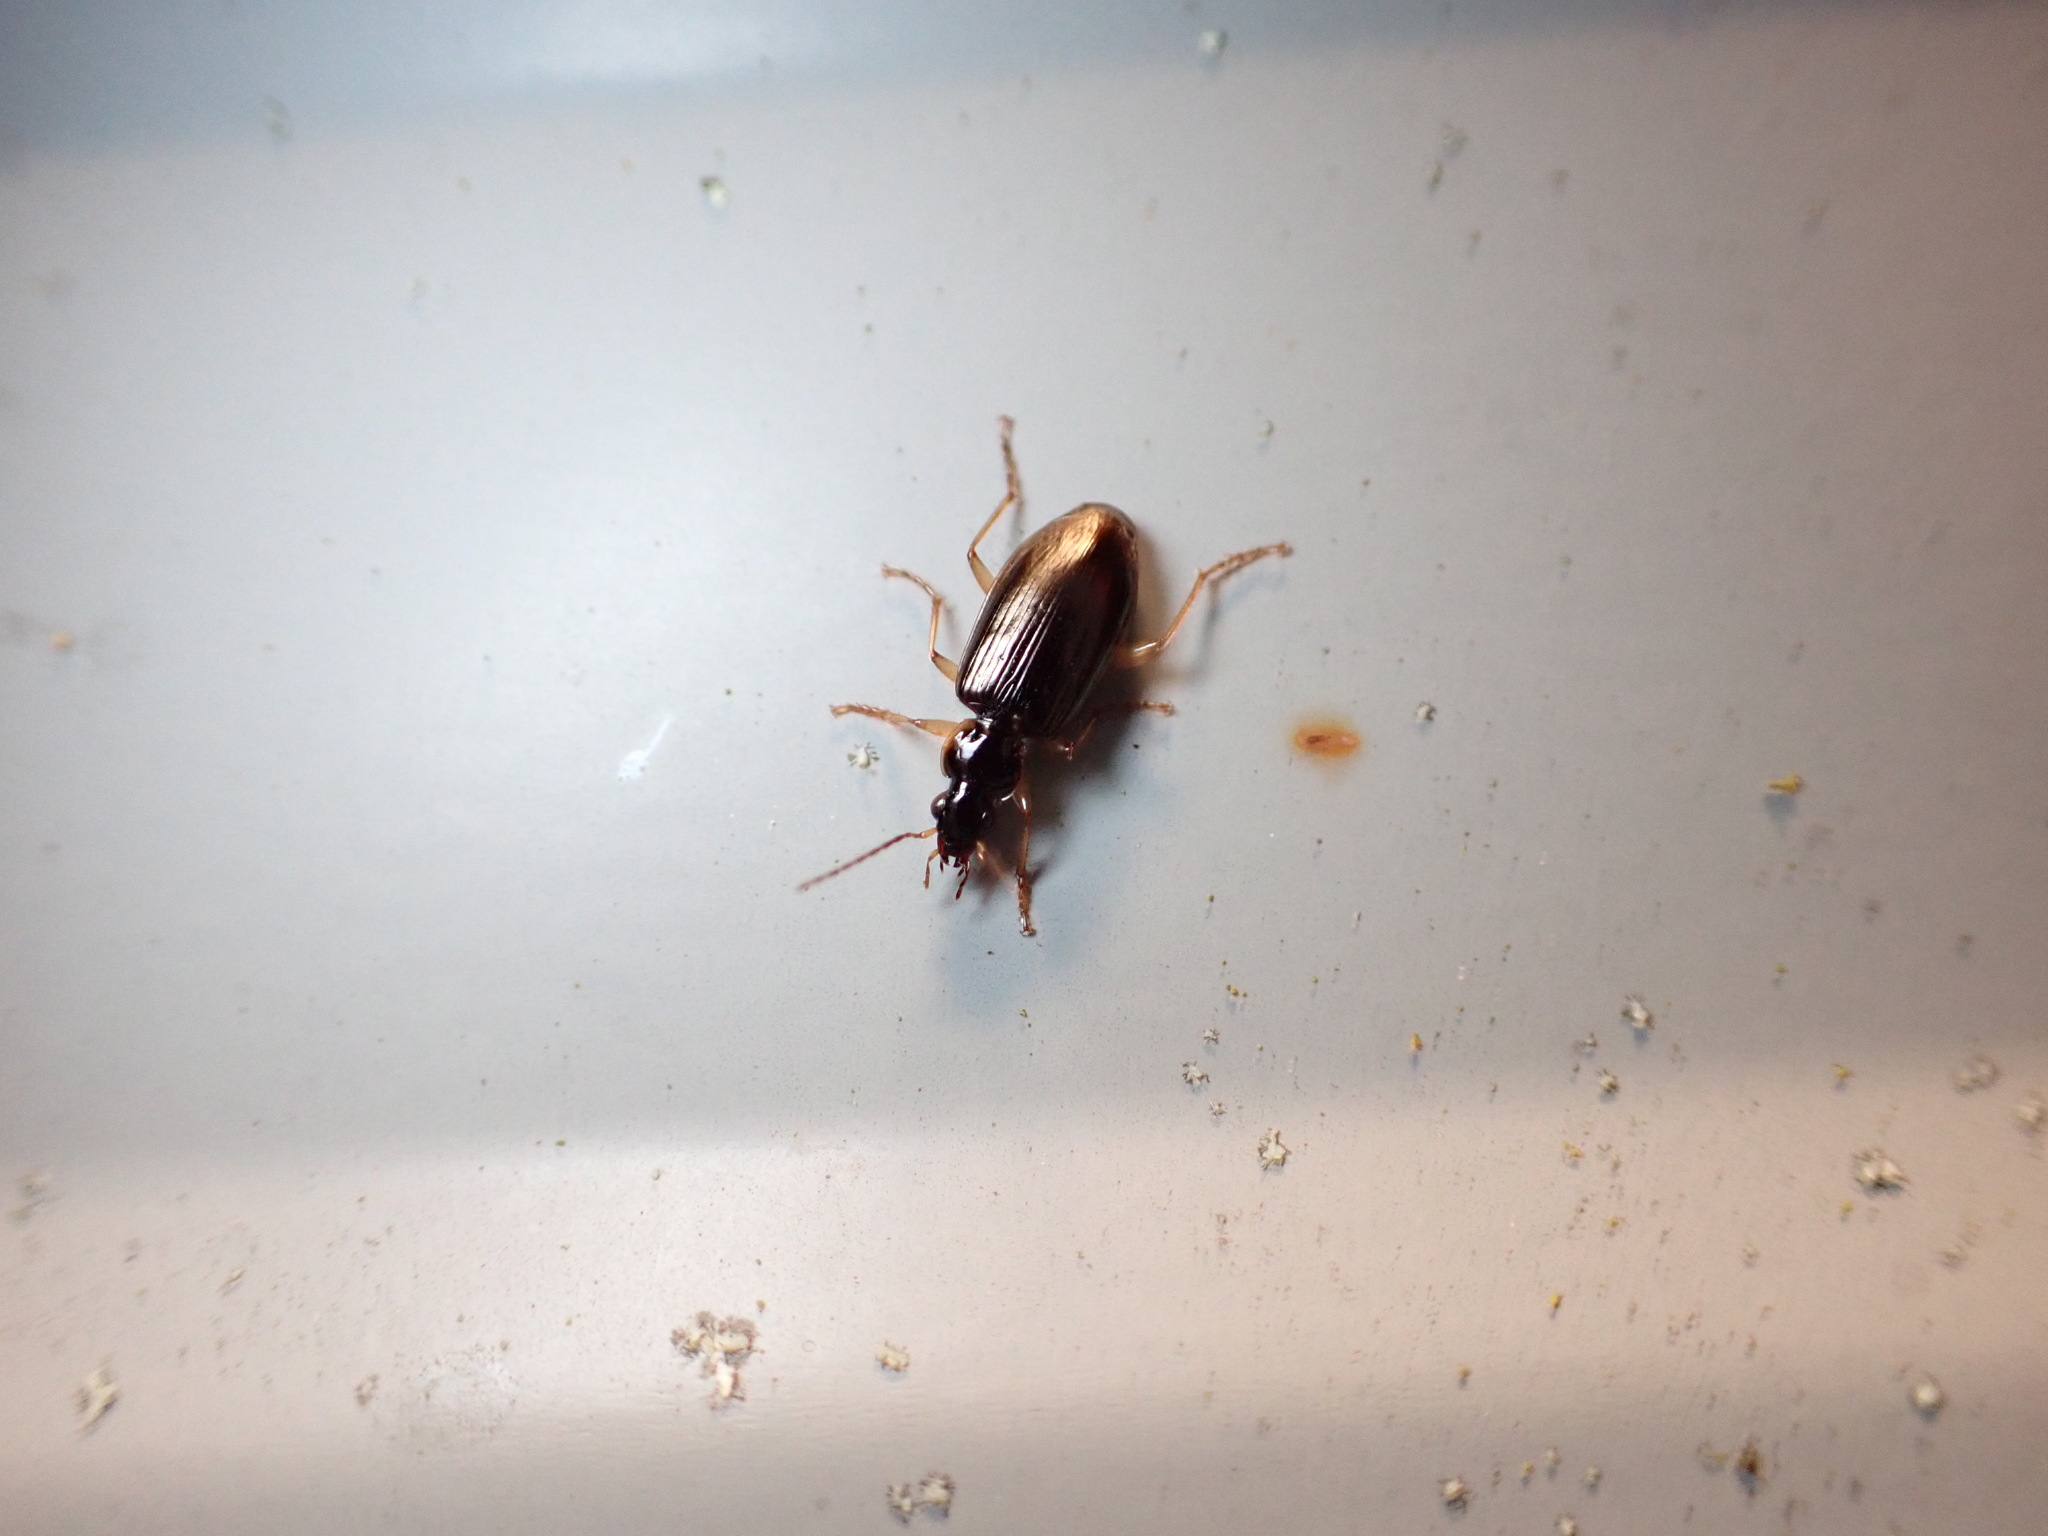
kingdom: Animalia
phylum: Arthropoda
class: Insecta
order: Coleoptera
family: Carabidae
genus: Notagonum
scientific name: Notagonum submetallicum
